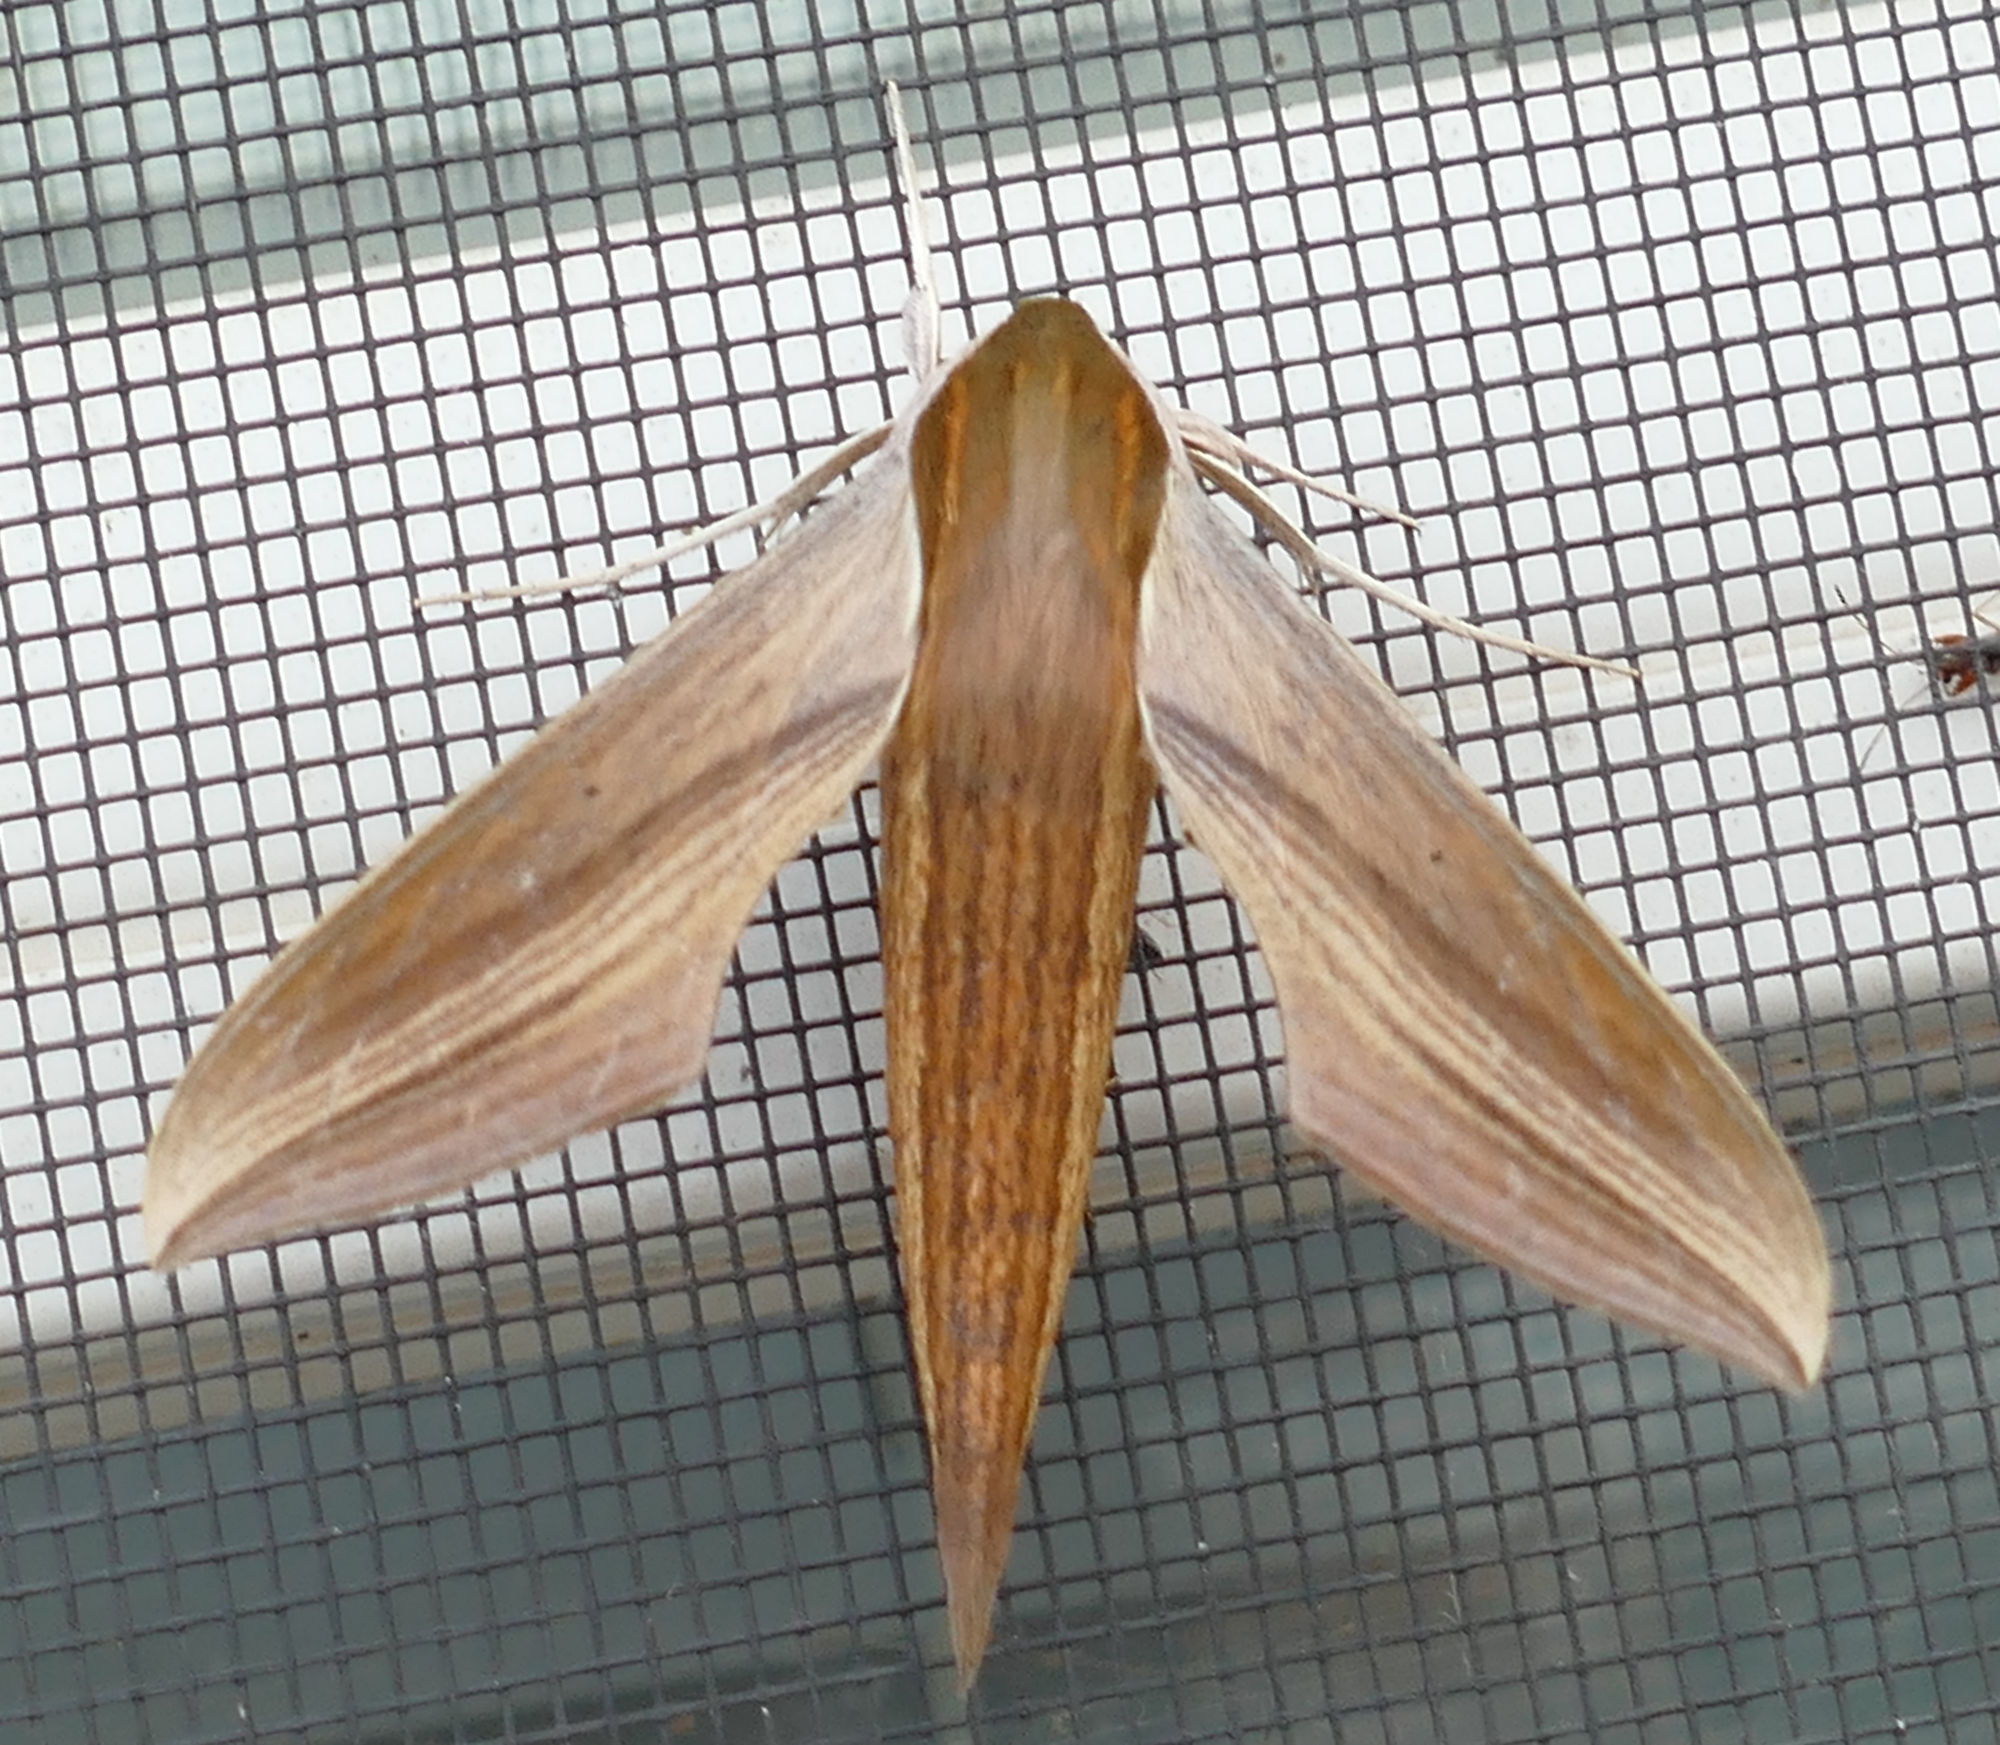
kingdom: Animalia
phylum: Arthropoda
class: Insecta
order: Lepidoptera
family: Sphingidae
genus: Xylophanes
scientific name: Xylophanes tersa
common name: Tersa sphinx
